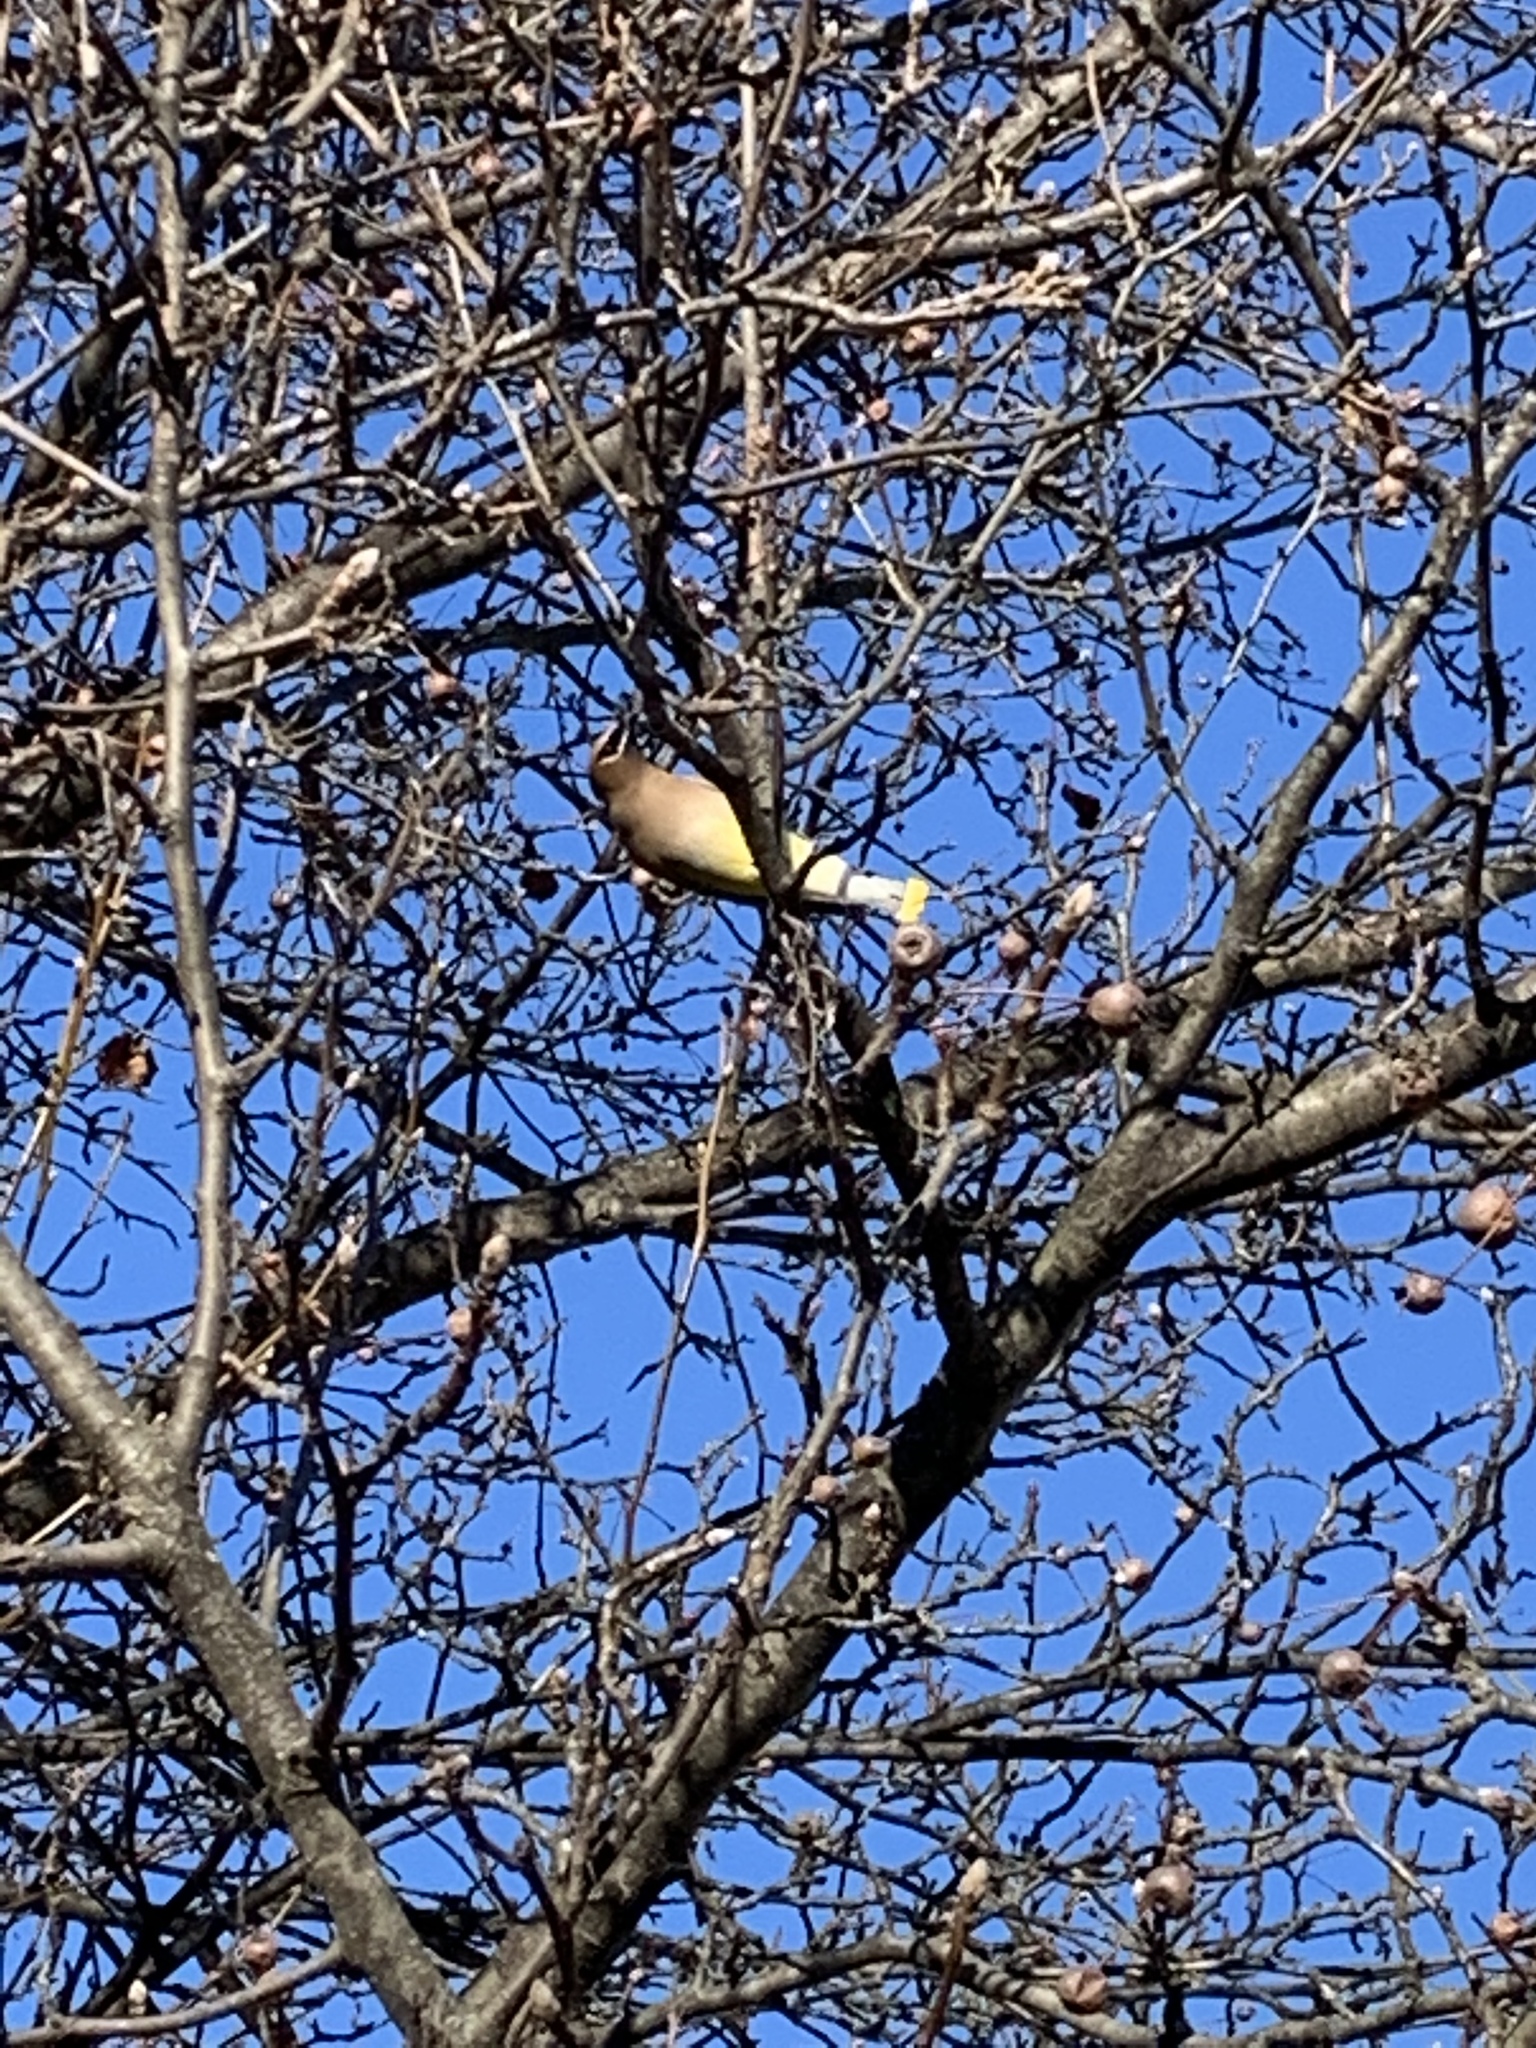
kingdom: Animalia
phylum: Chordata
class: Aves
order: Passeriformes
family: Bombycillidae
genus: Bombycilla
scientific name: Bombycilla cedrorum
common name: Cedar waxwing
